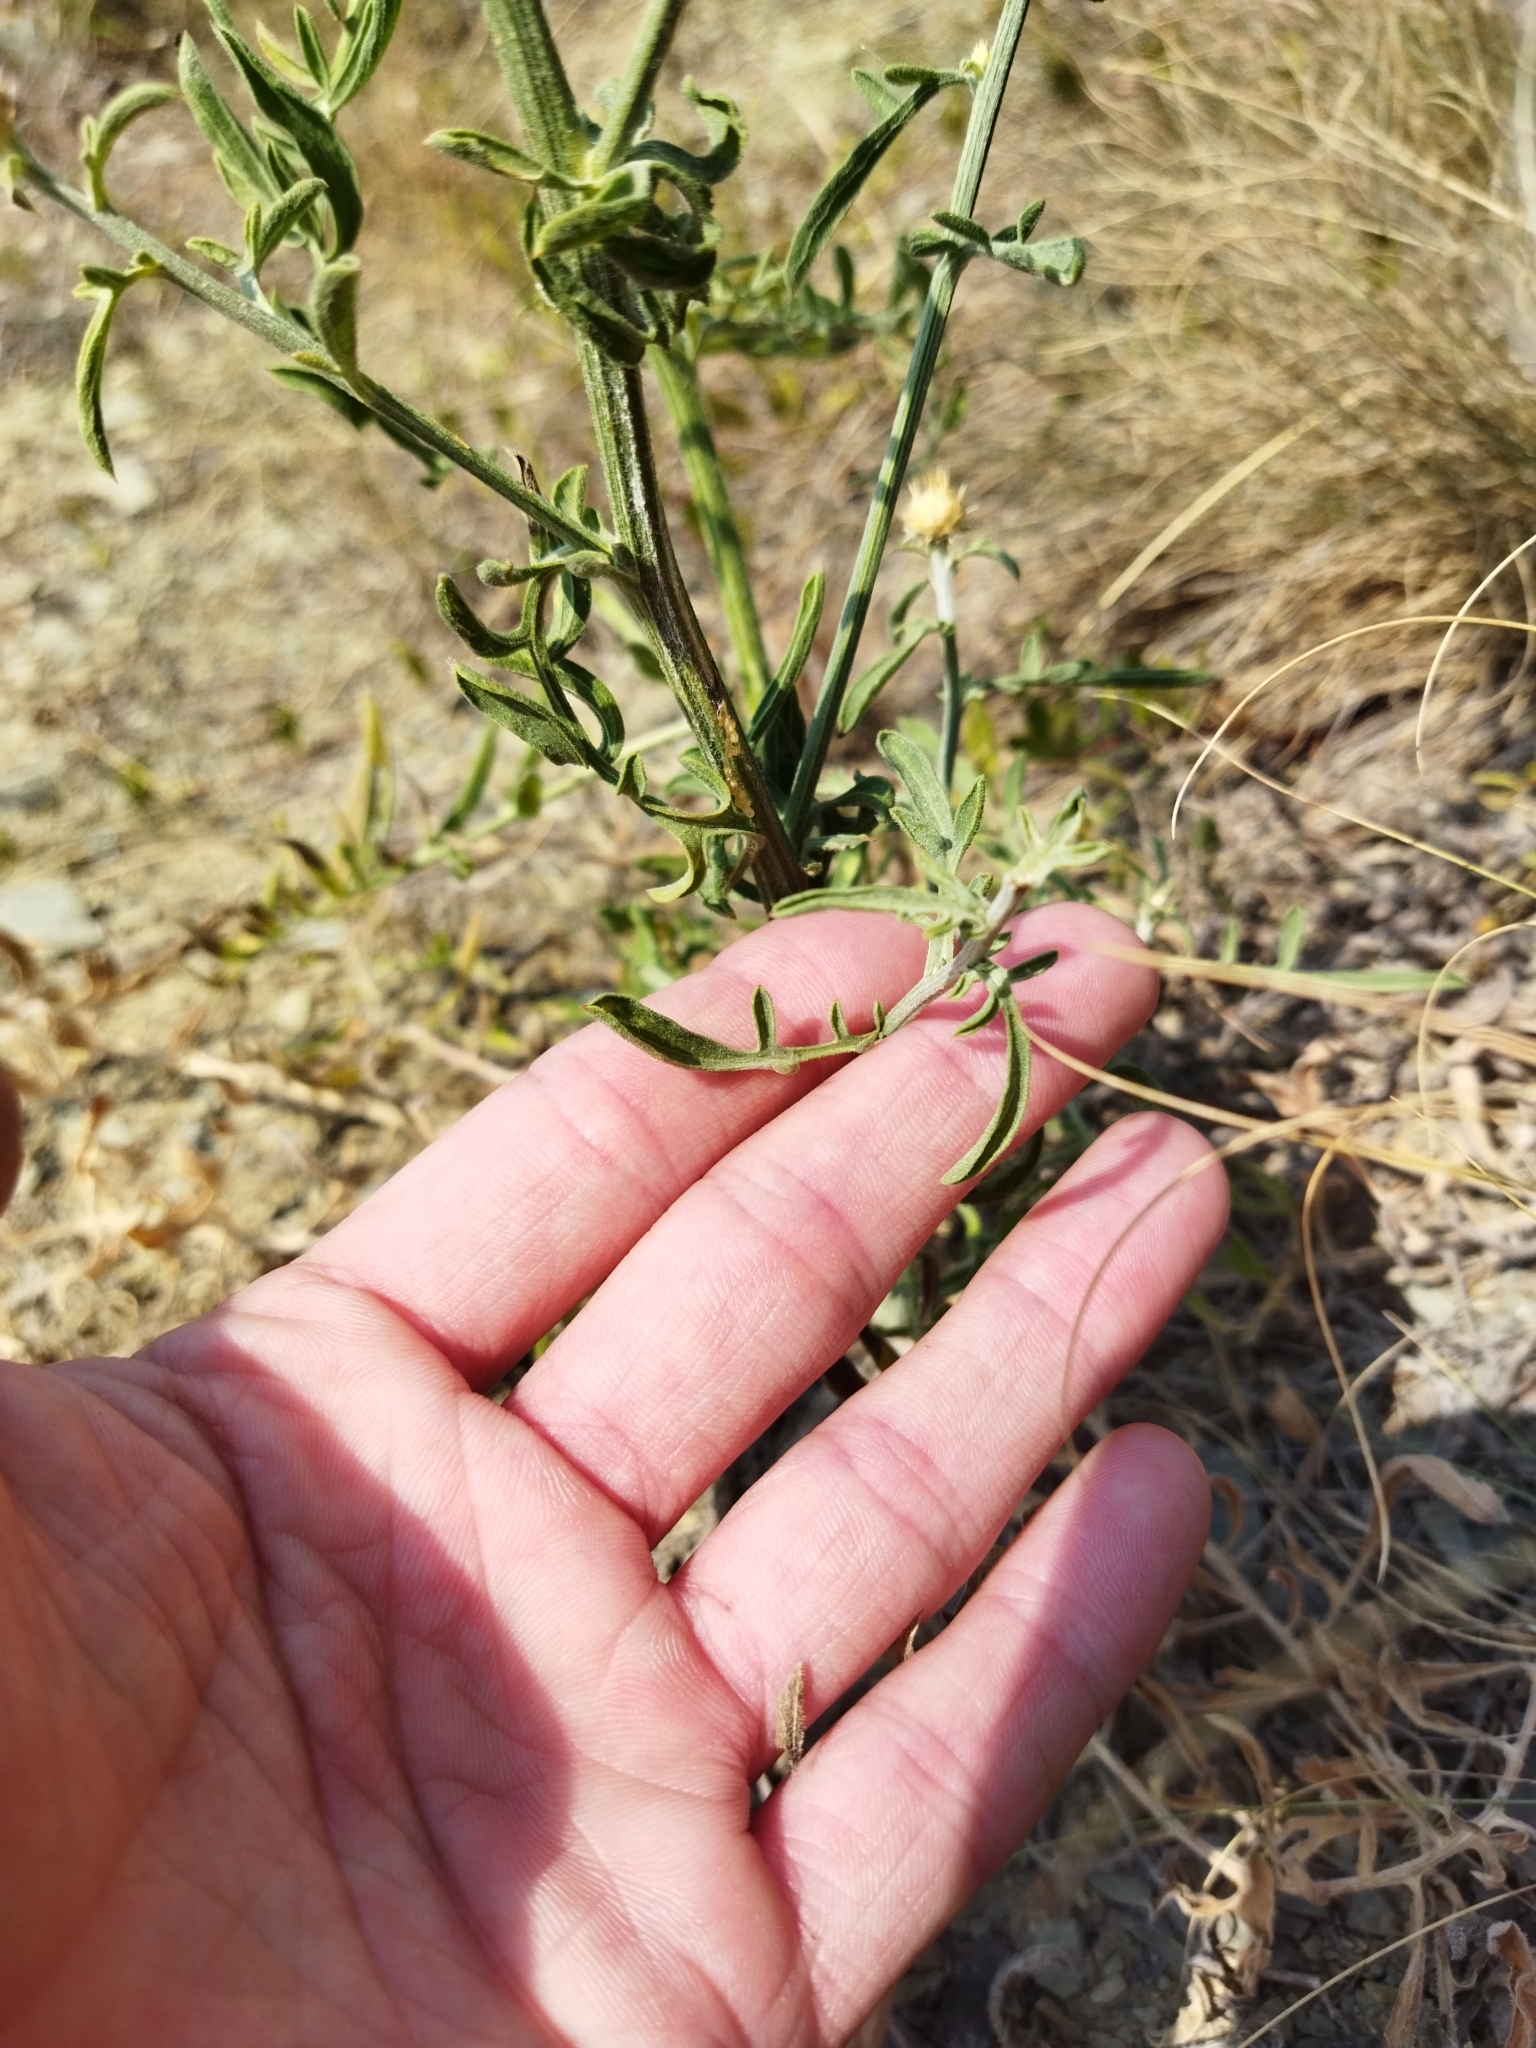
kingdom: Plantae
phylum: Tracheophyta
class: Magnoliopsida
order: Asterales
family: Asteraceae
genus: Centaurea
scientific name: Centaurea salonitana
